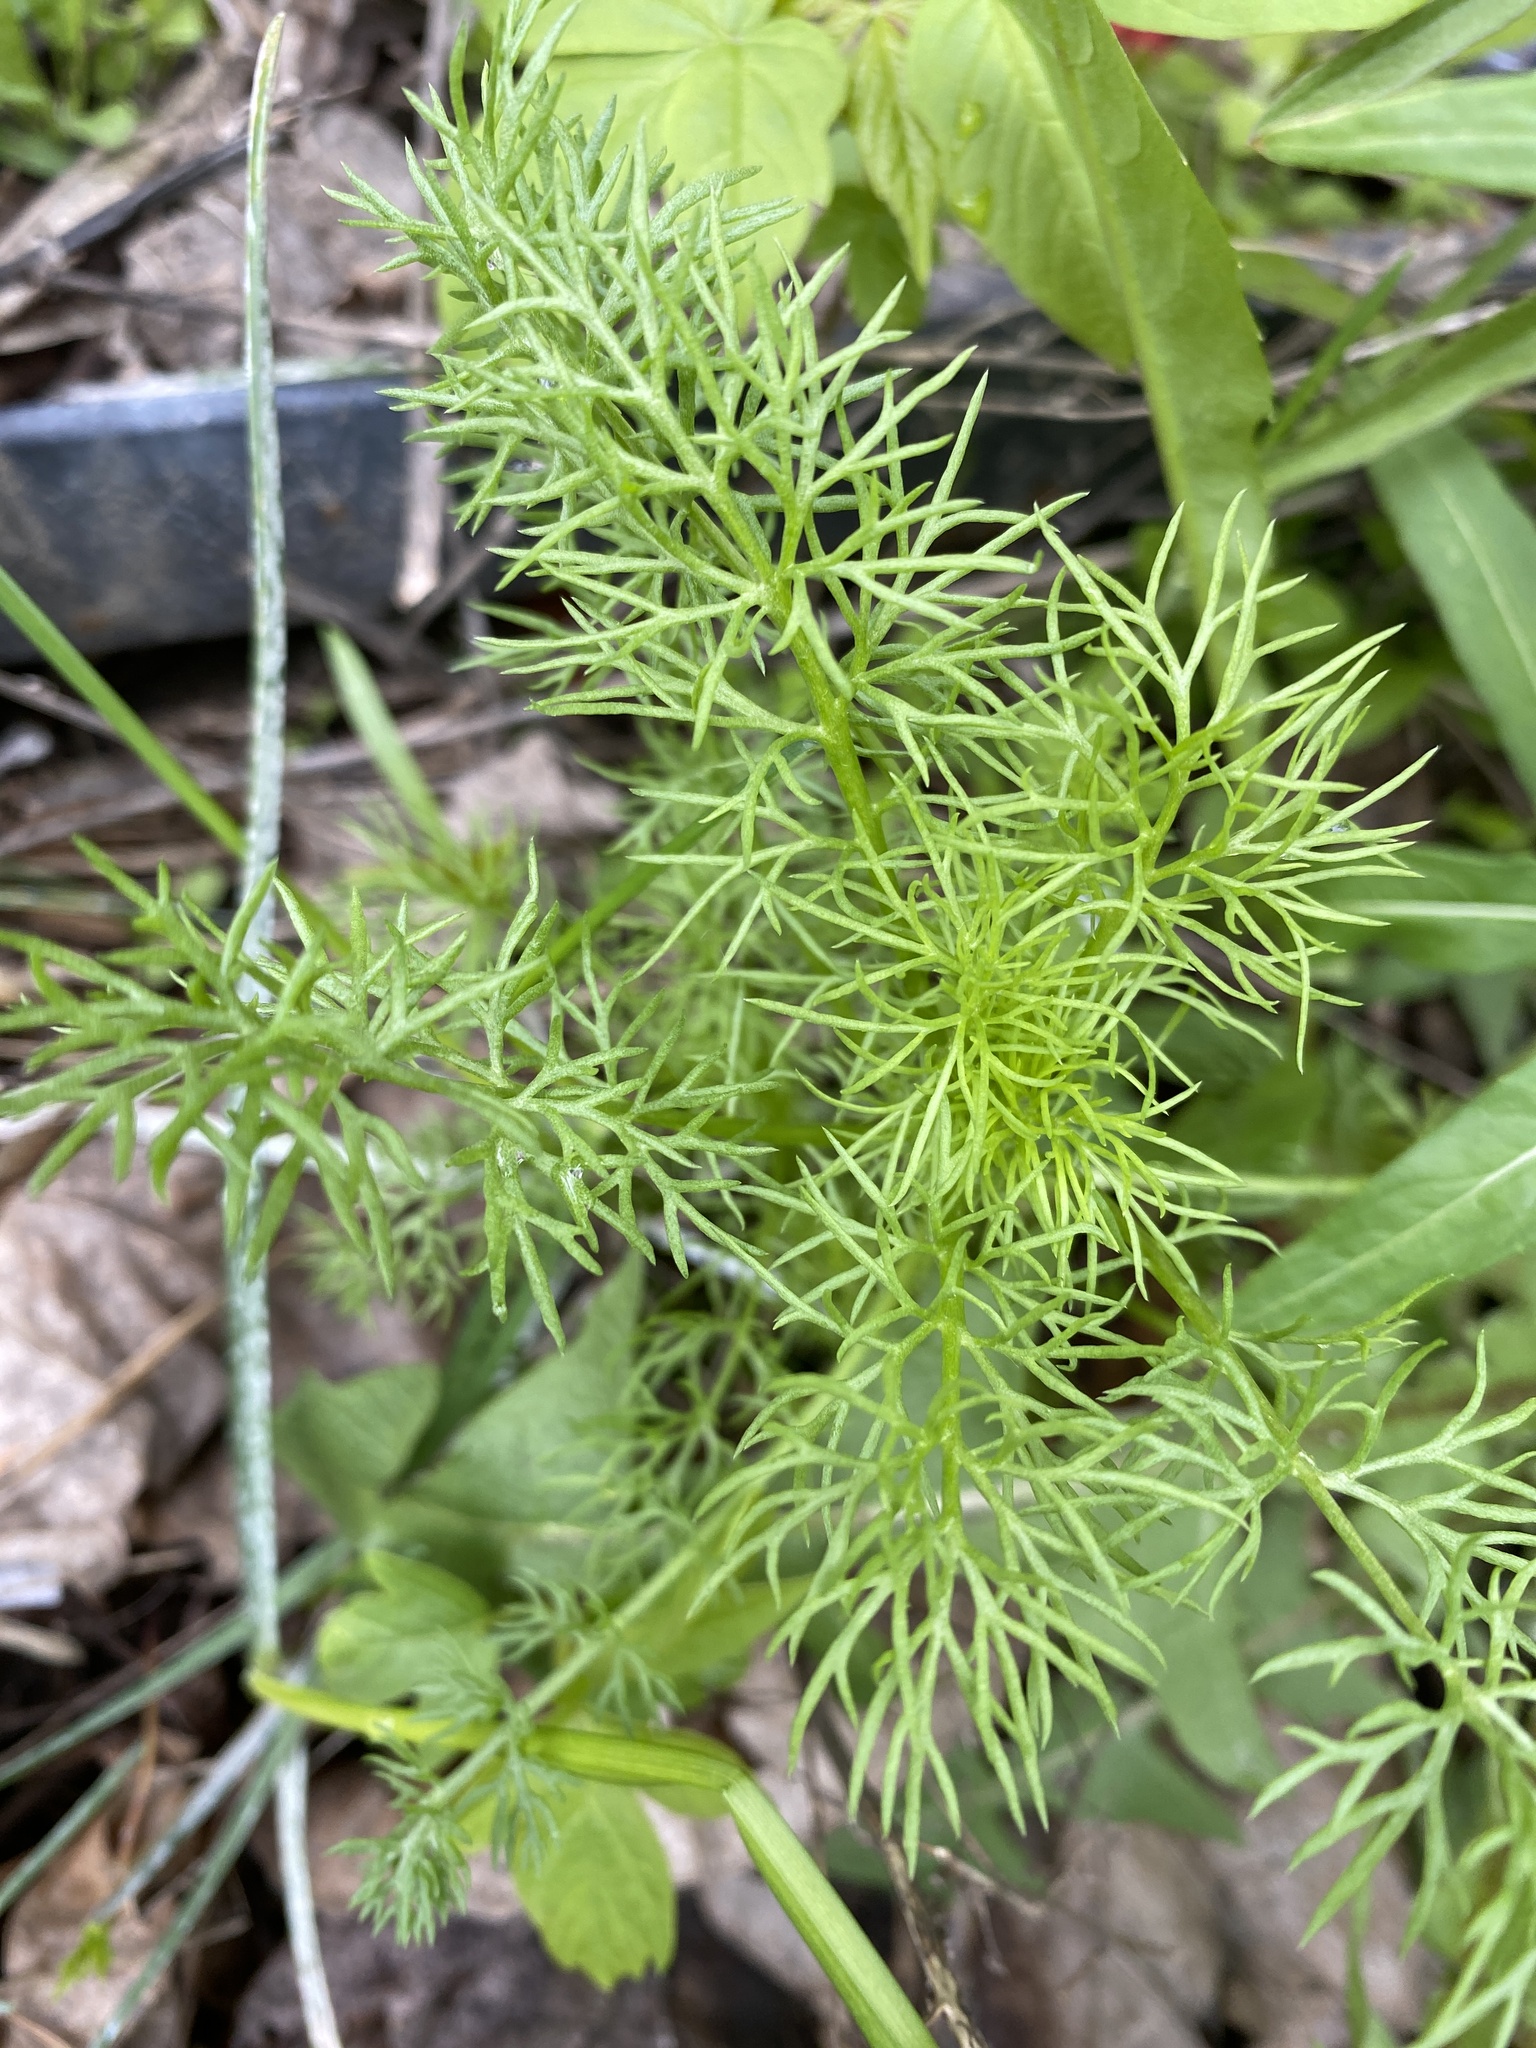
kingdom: Plantae
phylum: Tracheophyta
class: Magnoliopsida
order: Asterales
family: Asteraceae
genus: Tripleurospermum
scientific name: Tripleurospermum inodorum
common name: Scentless mayweed
